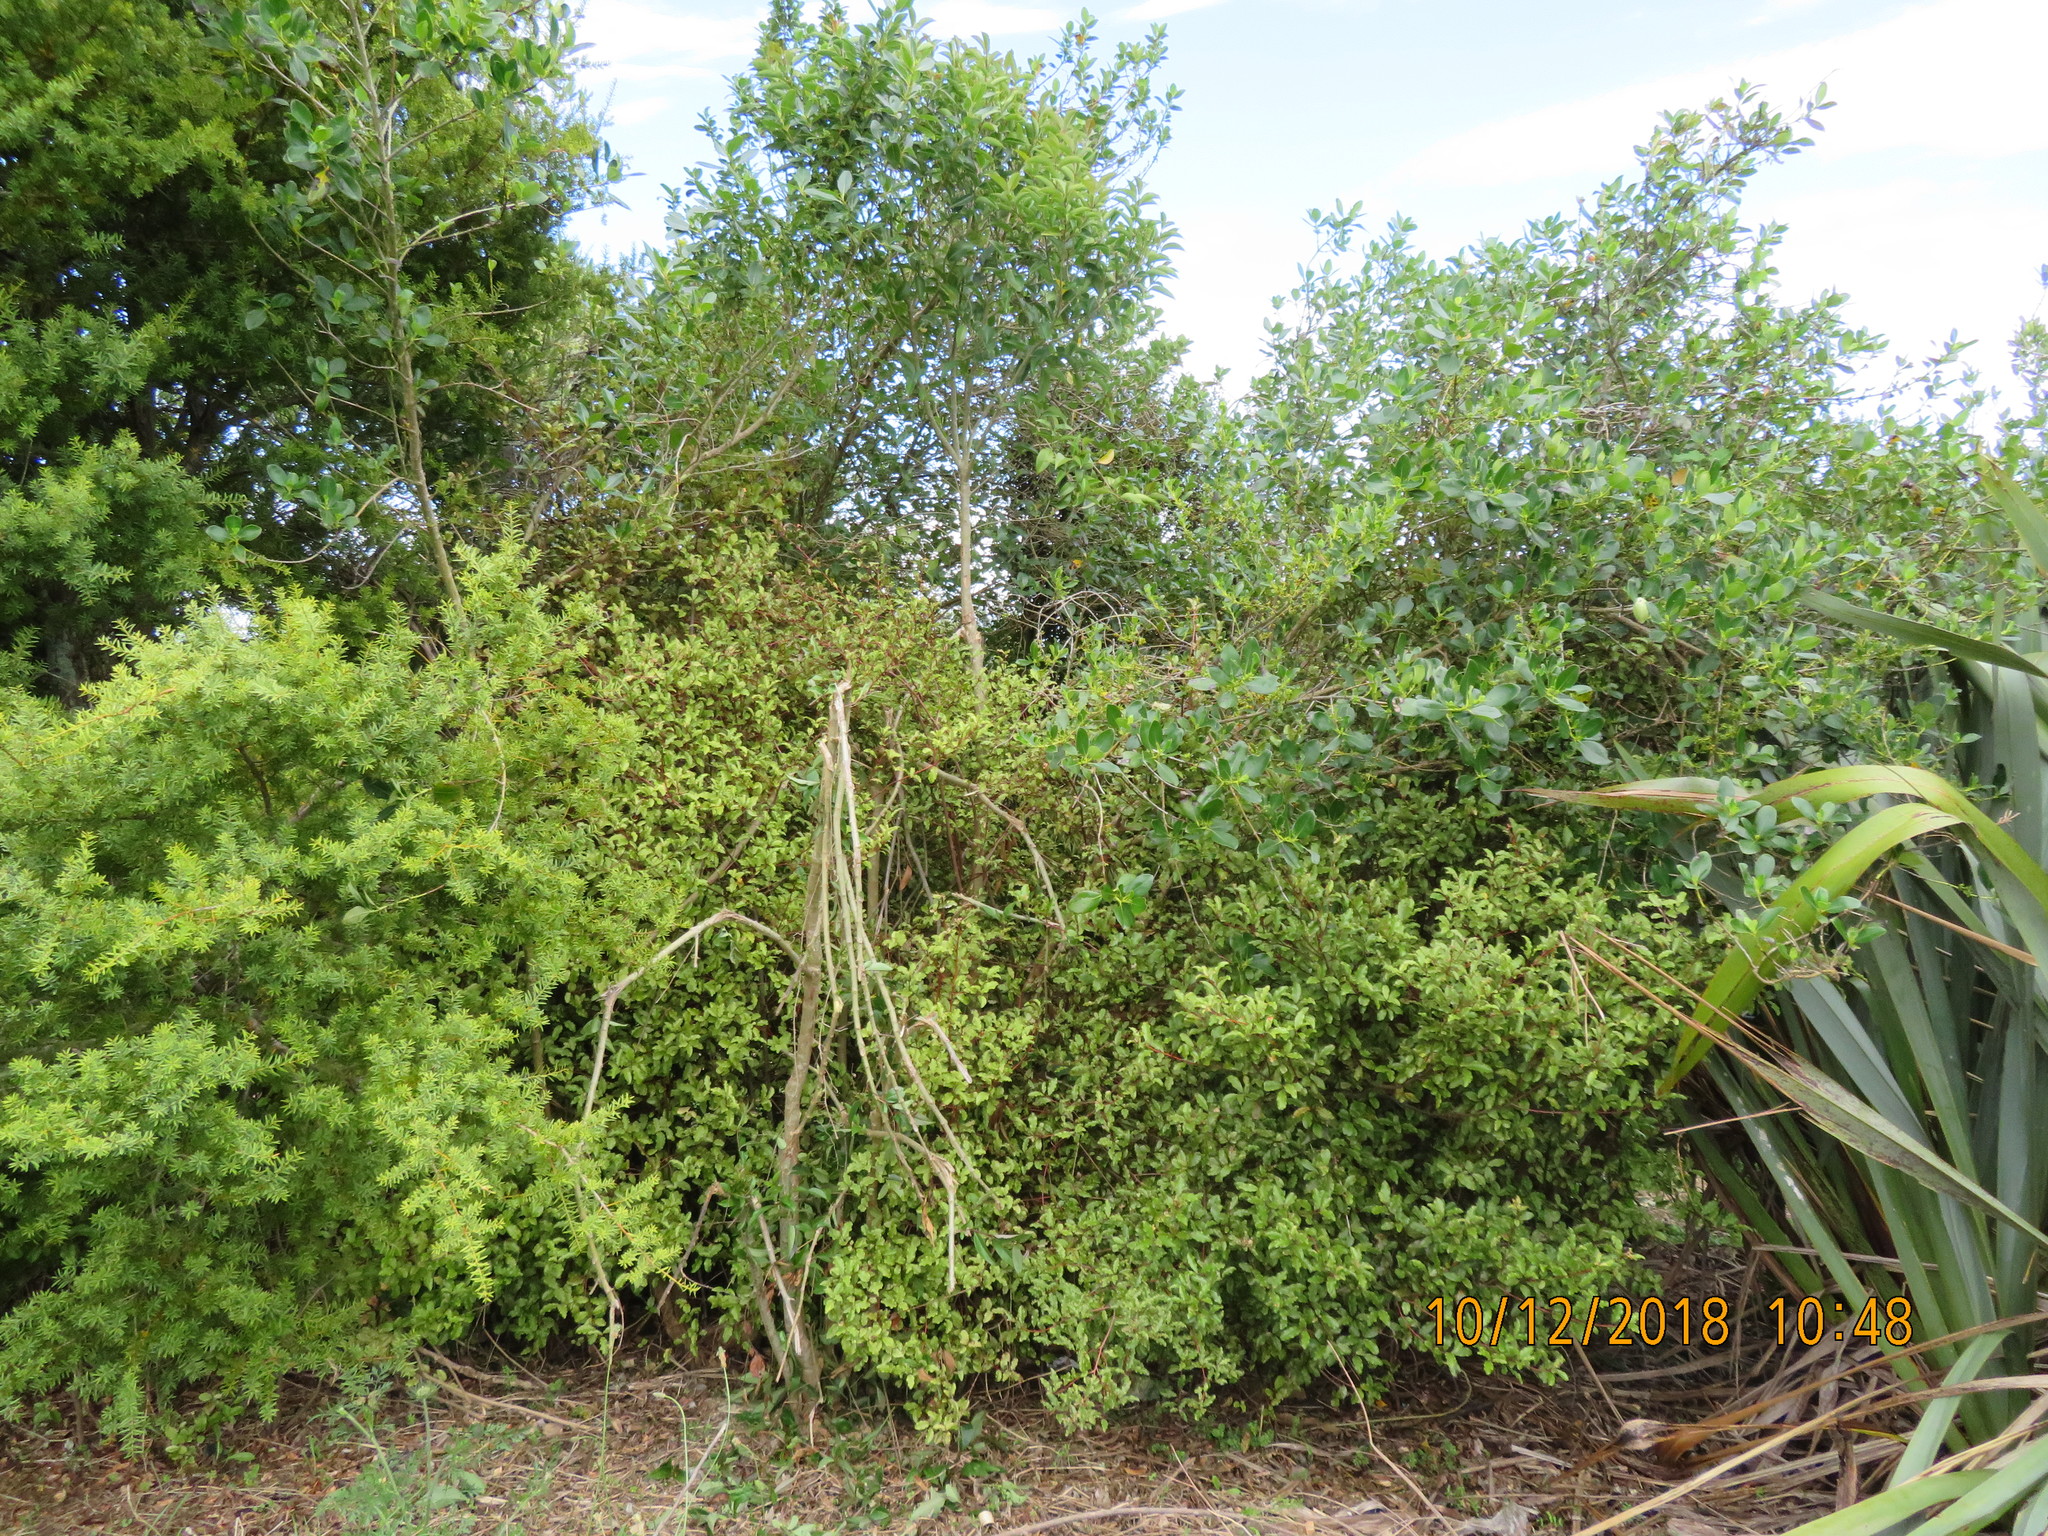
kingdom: Plantae
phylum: Tracheophyta
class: Magnoliopsida
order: Ericales
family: Primulaceae
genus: Myrsine
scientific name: Myrsine australis
